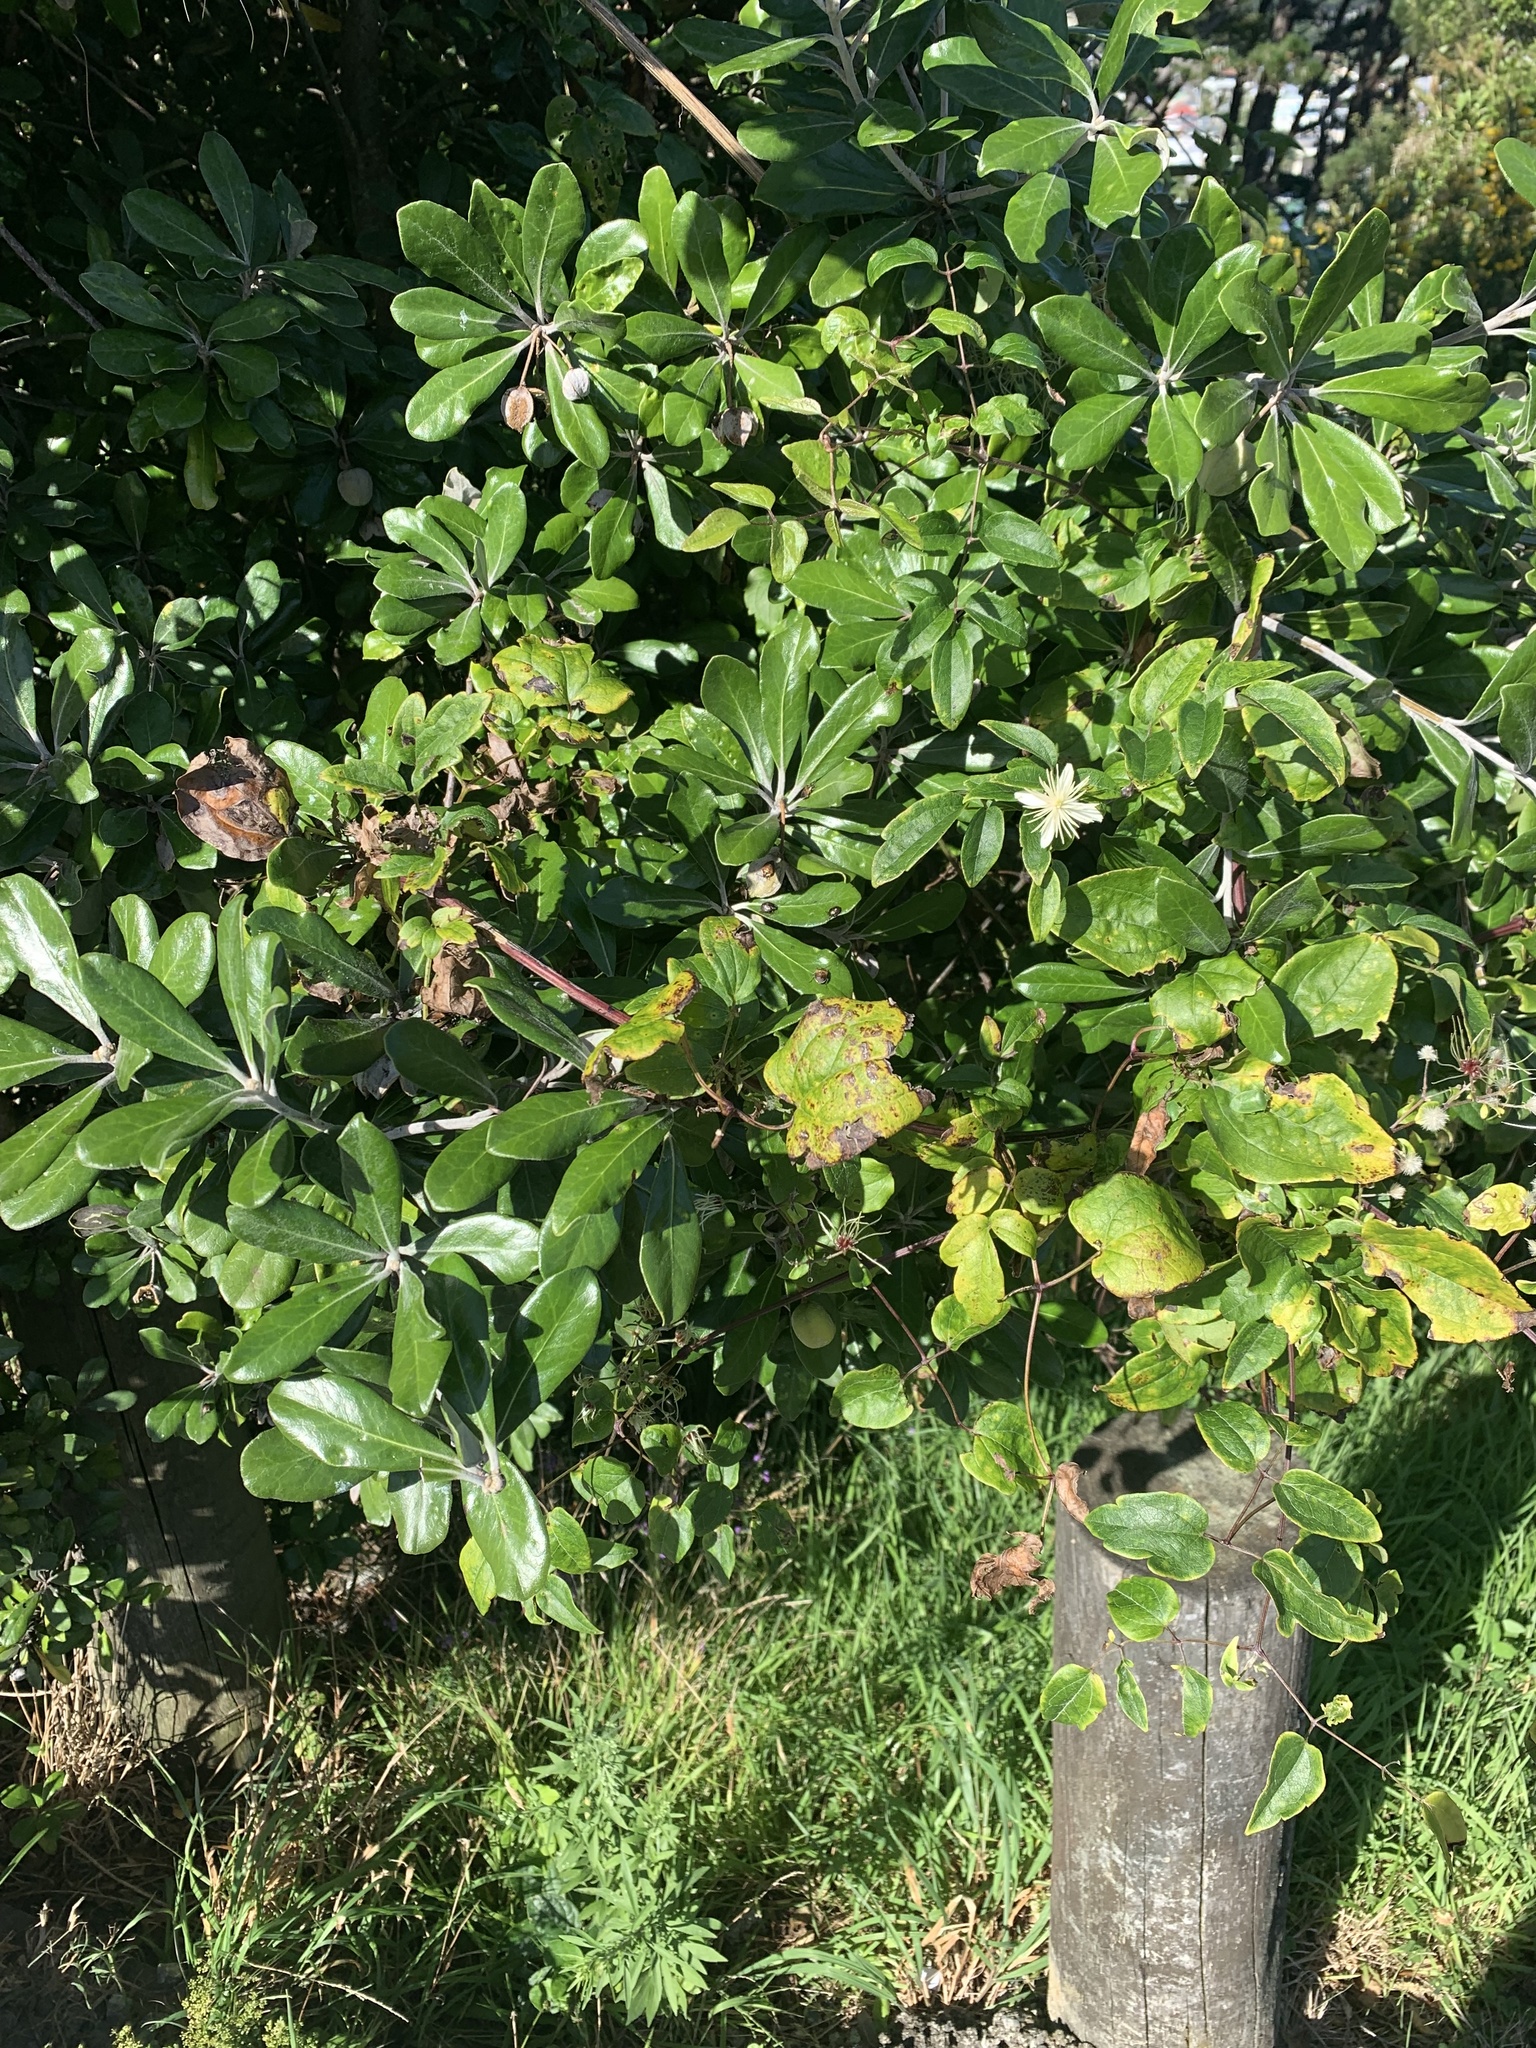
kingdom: Animalia
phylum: Arthropoda
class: Insecta
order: Hemiptera
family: Pentatomidae
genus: Monteithiella
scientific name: Monteithiella
